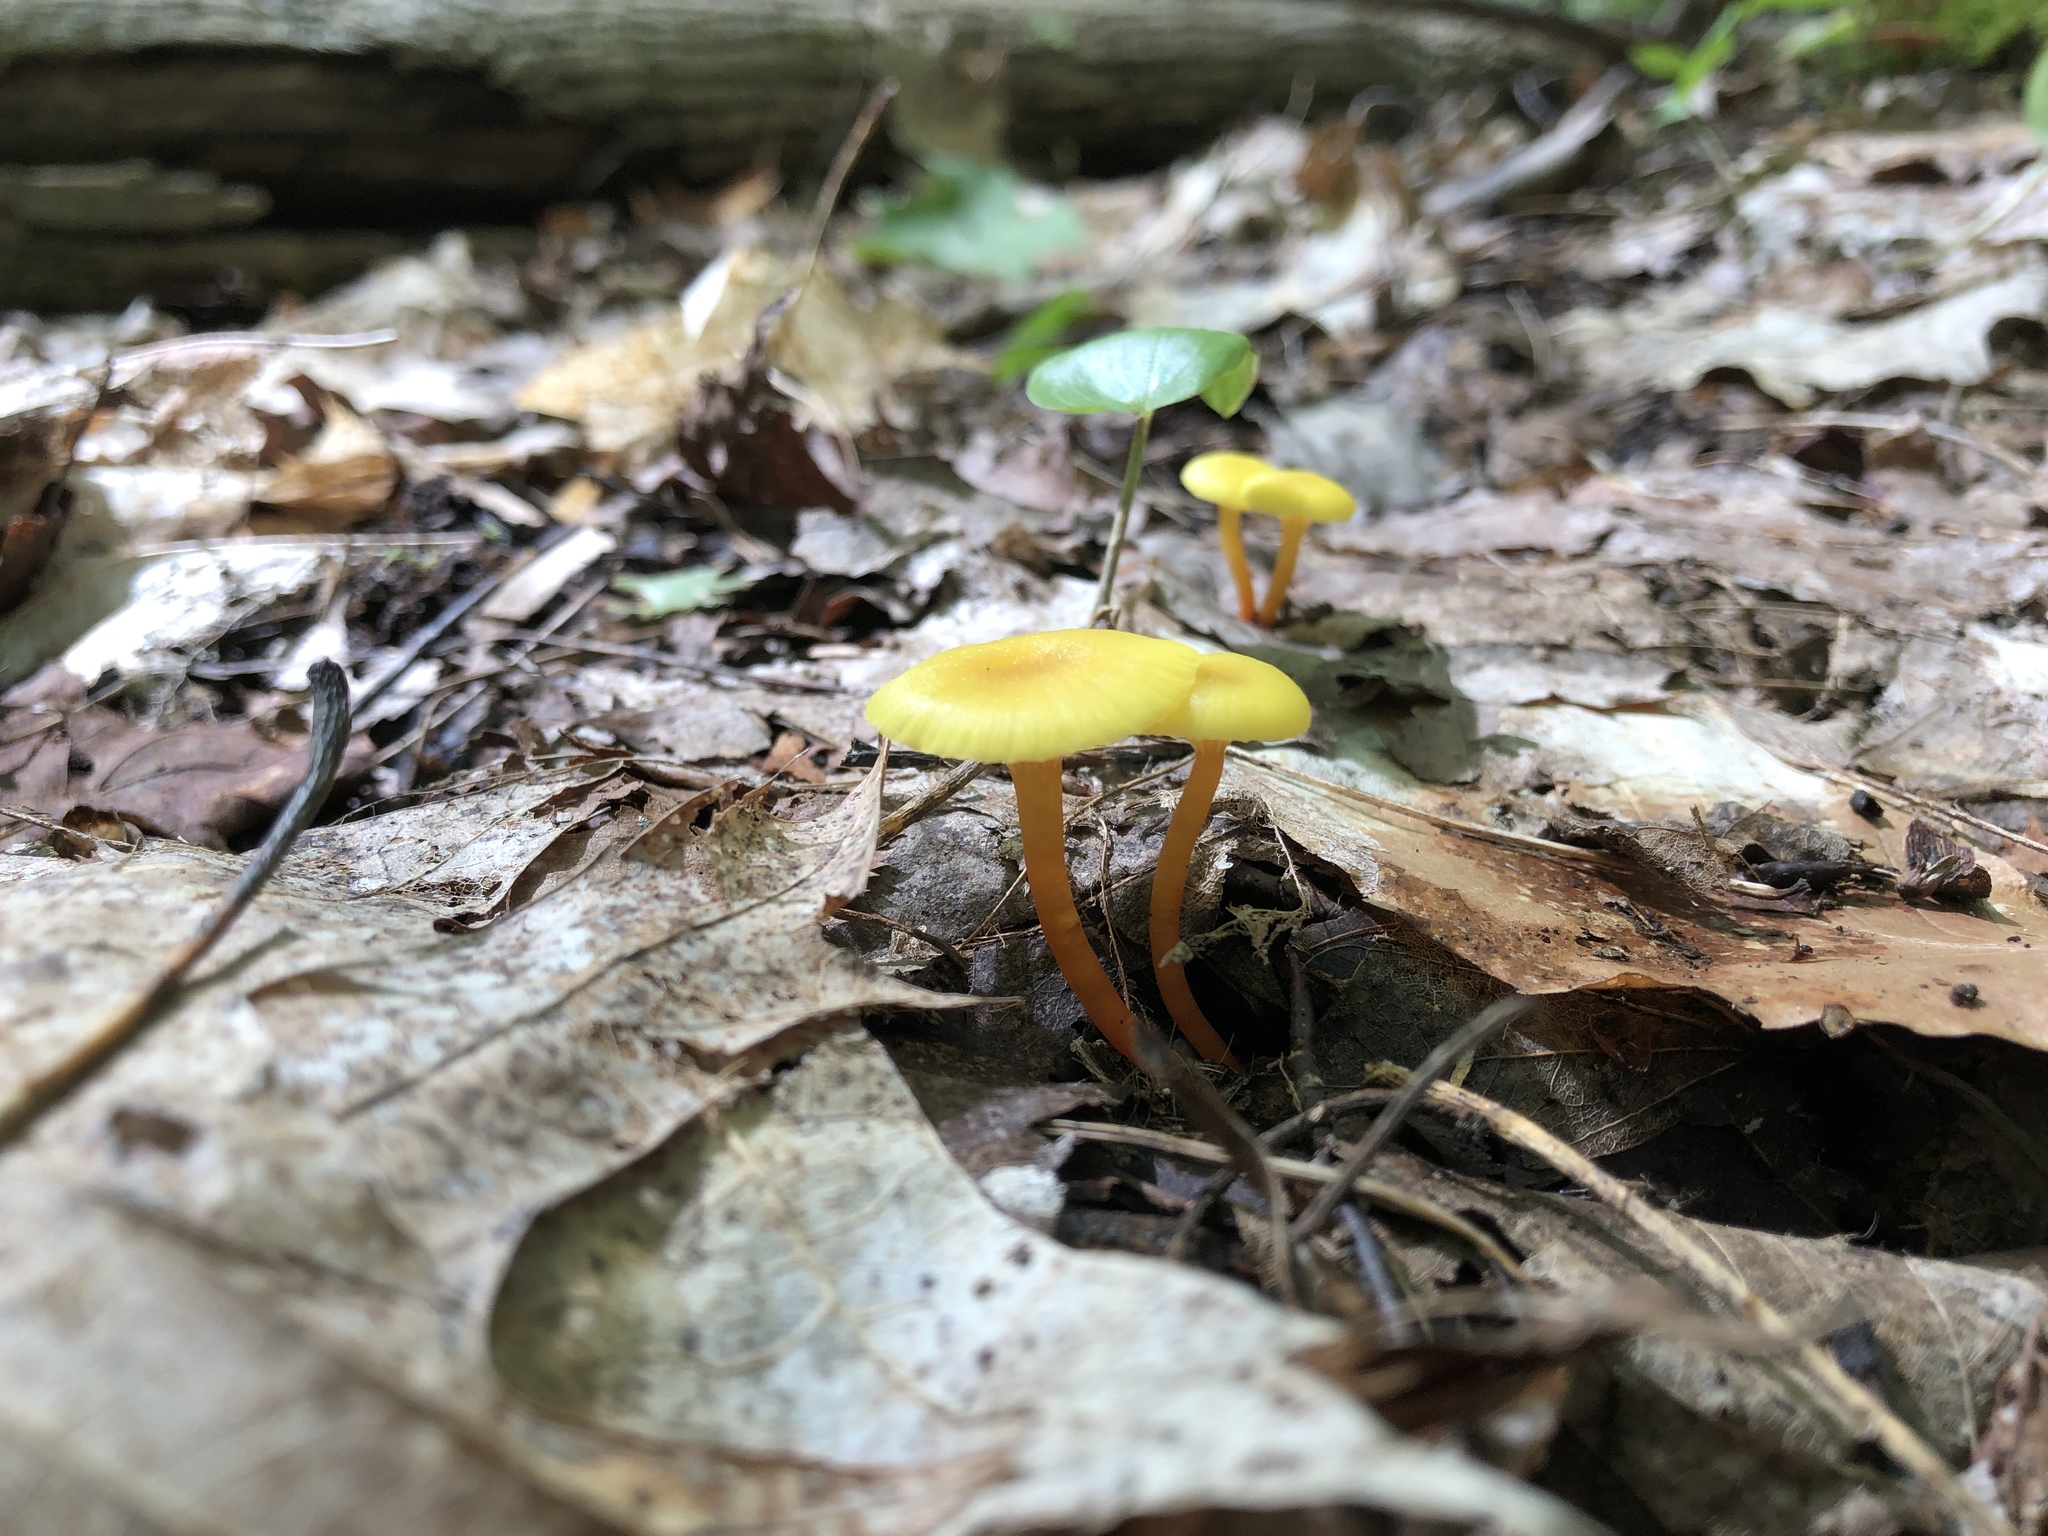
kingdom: Fungi
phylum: Basidiomycota
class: Agaricomycetes
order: Agaricales
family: Hygrophoraceae
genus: Hygrocybe
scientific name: Hygrocybe parvula
